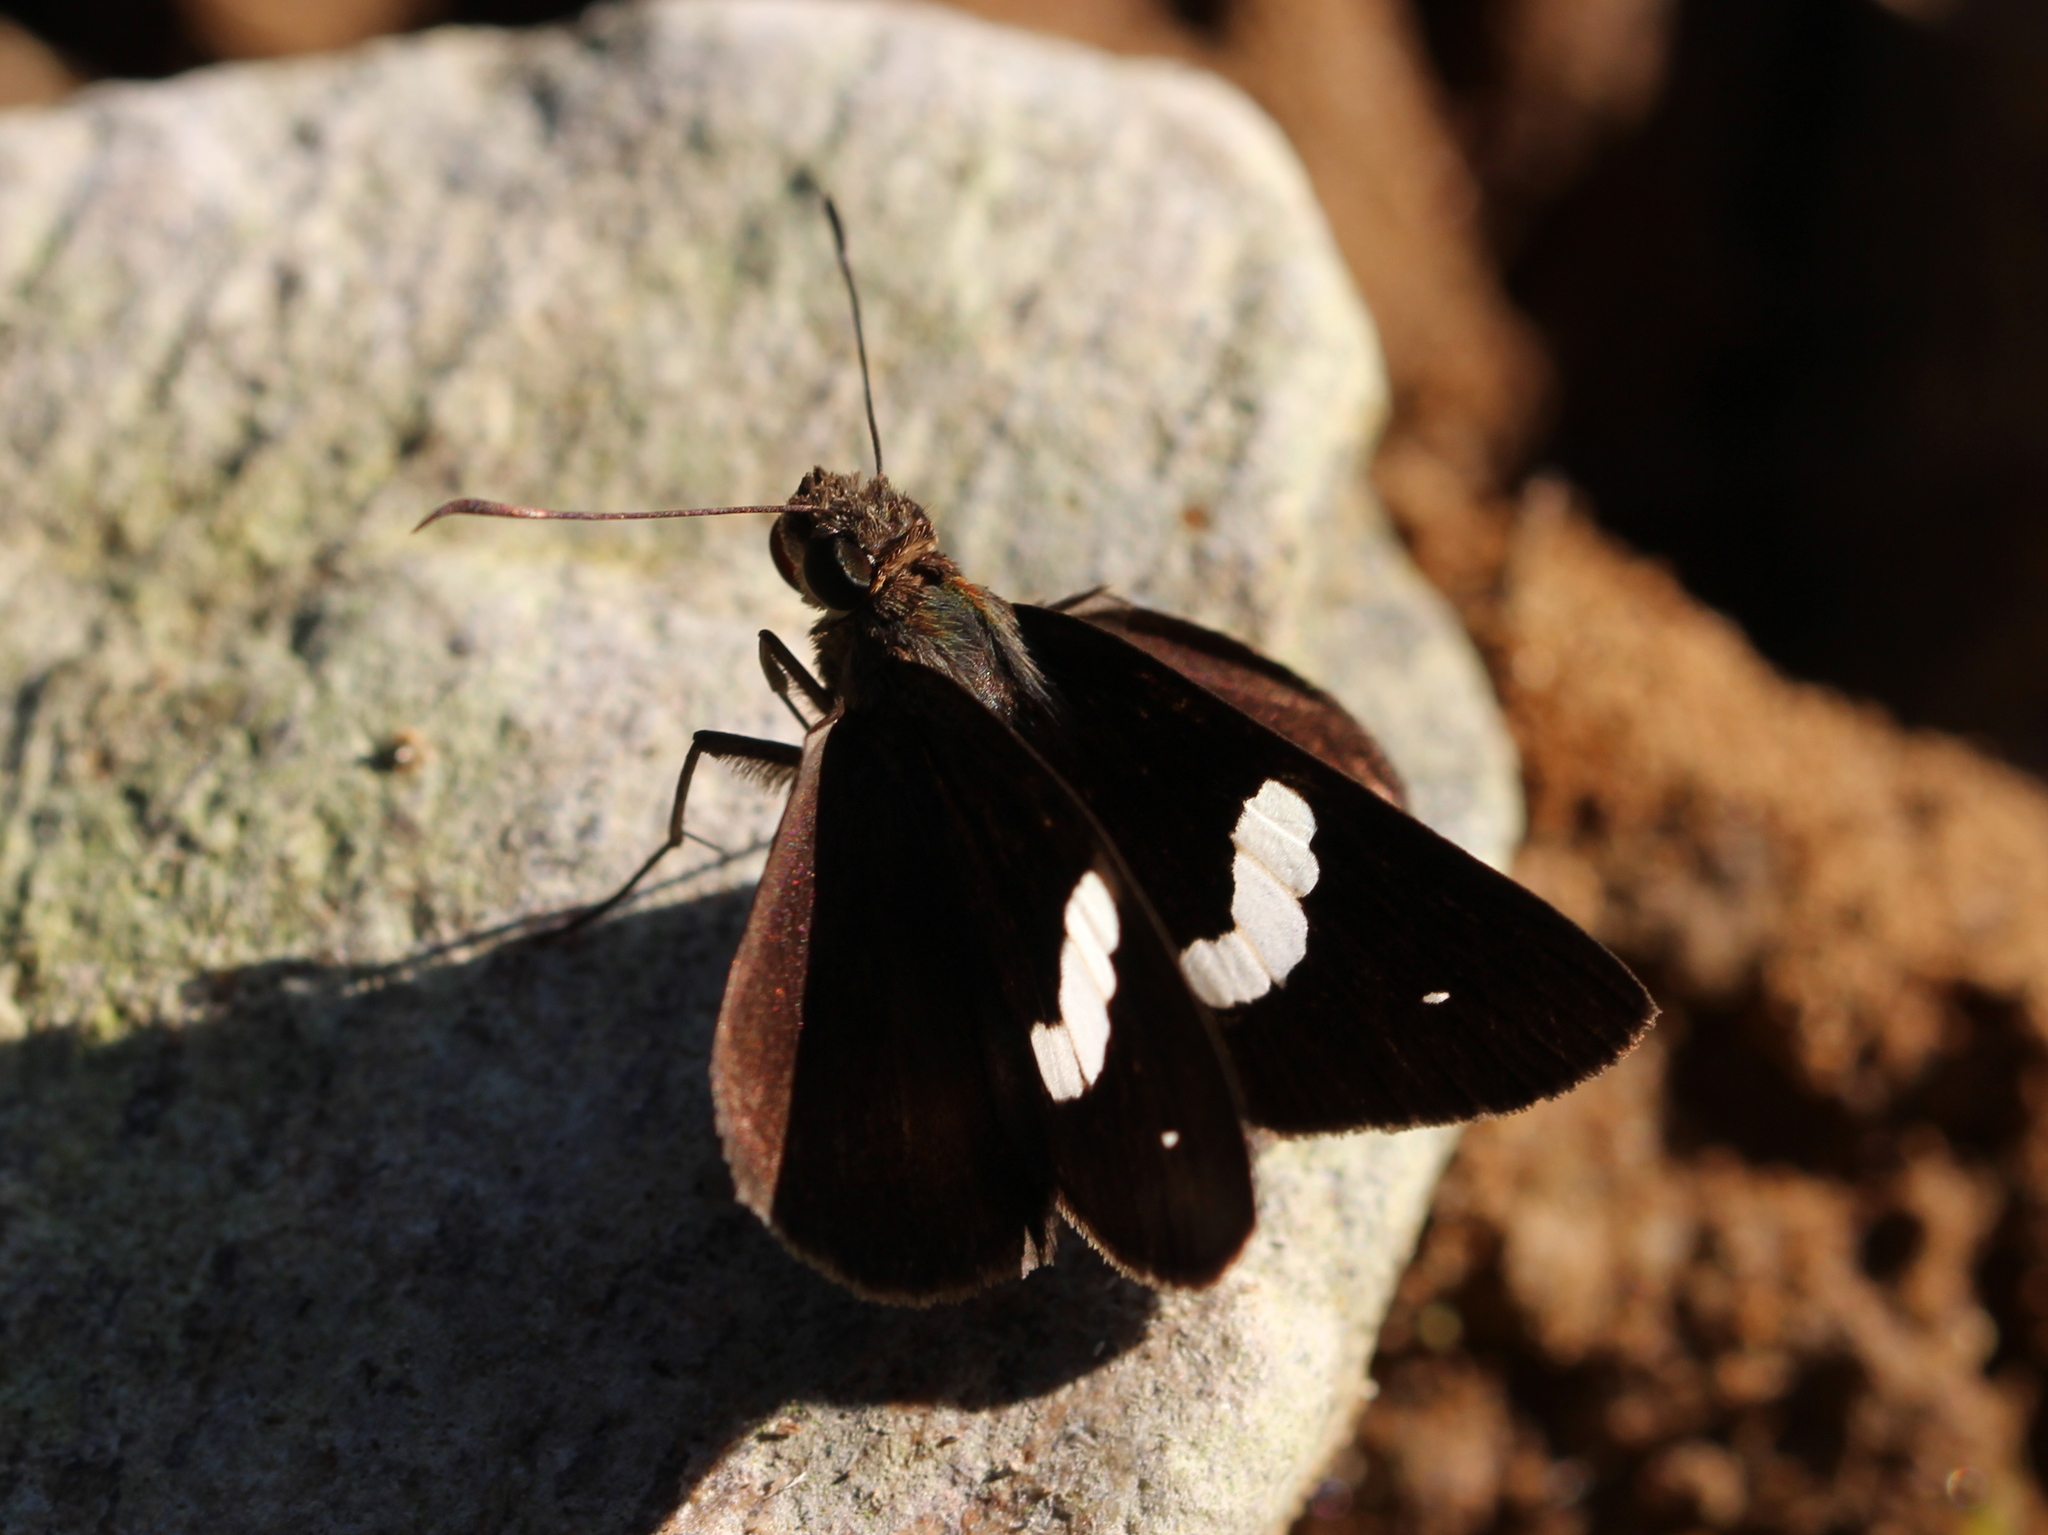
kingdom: Animalia
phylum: Arthropoda
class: Insecta
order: Lepidoptera
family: Hesperiidae
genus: Notocrypta
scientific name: Notocrypta paralysos
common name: Common banded demon
